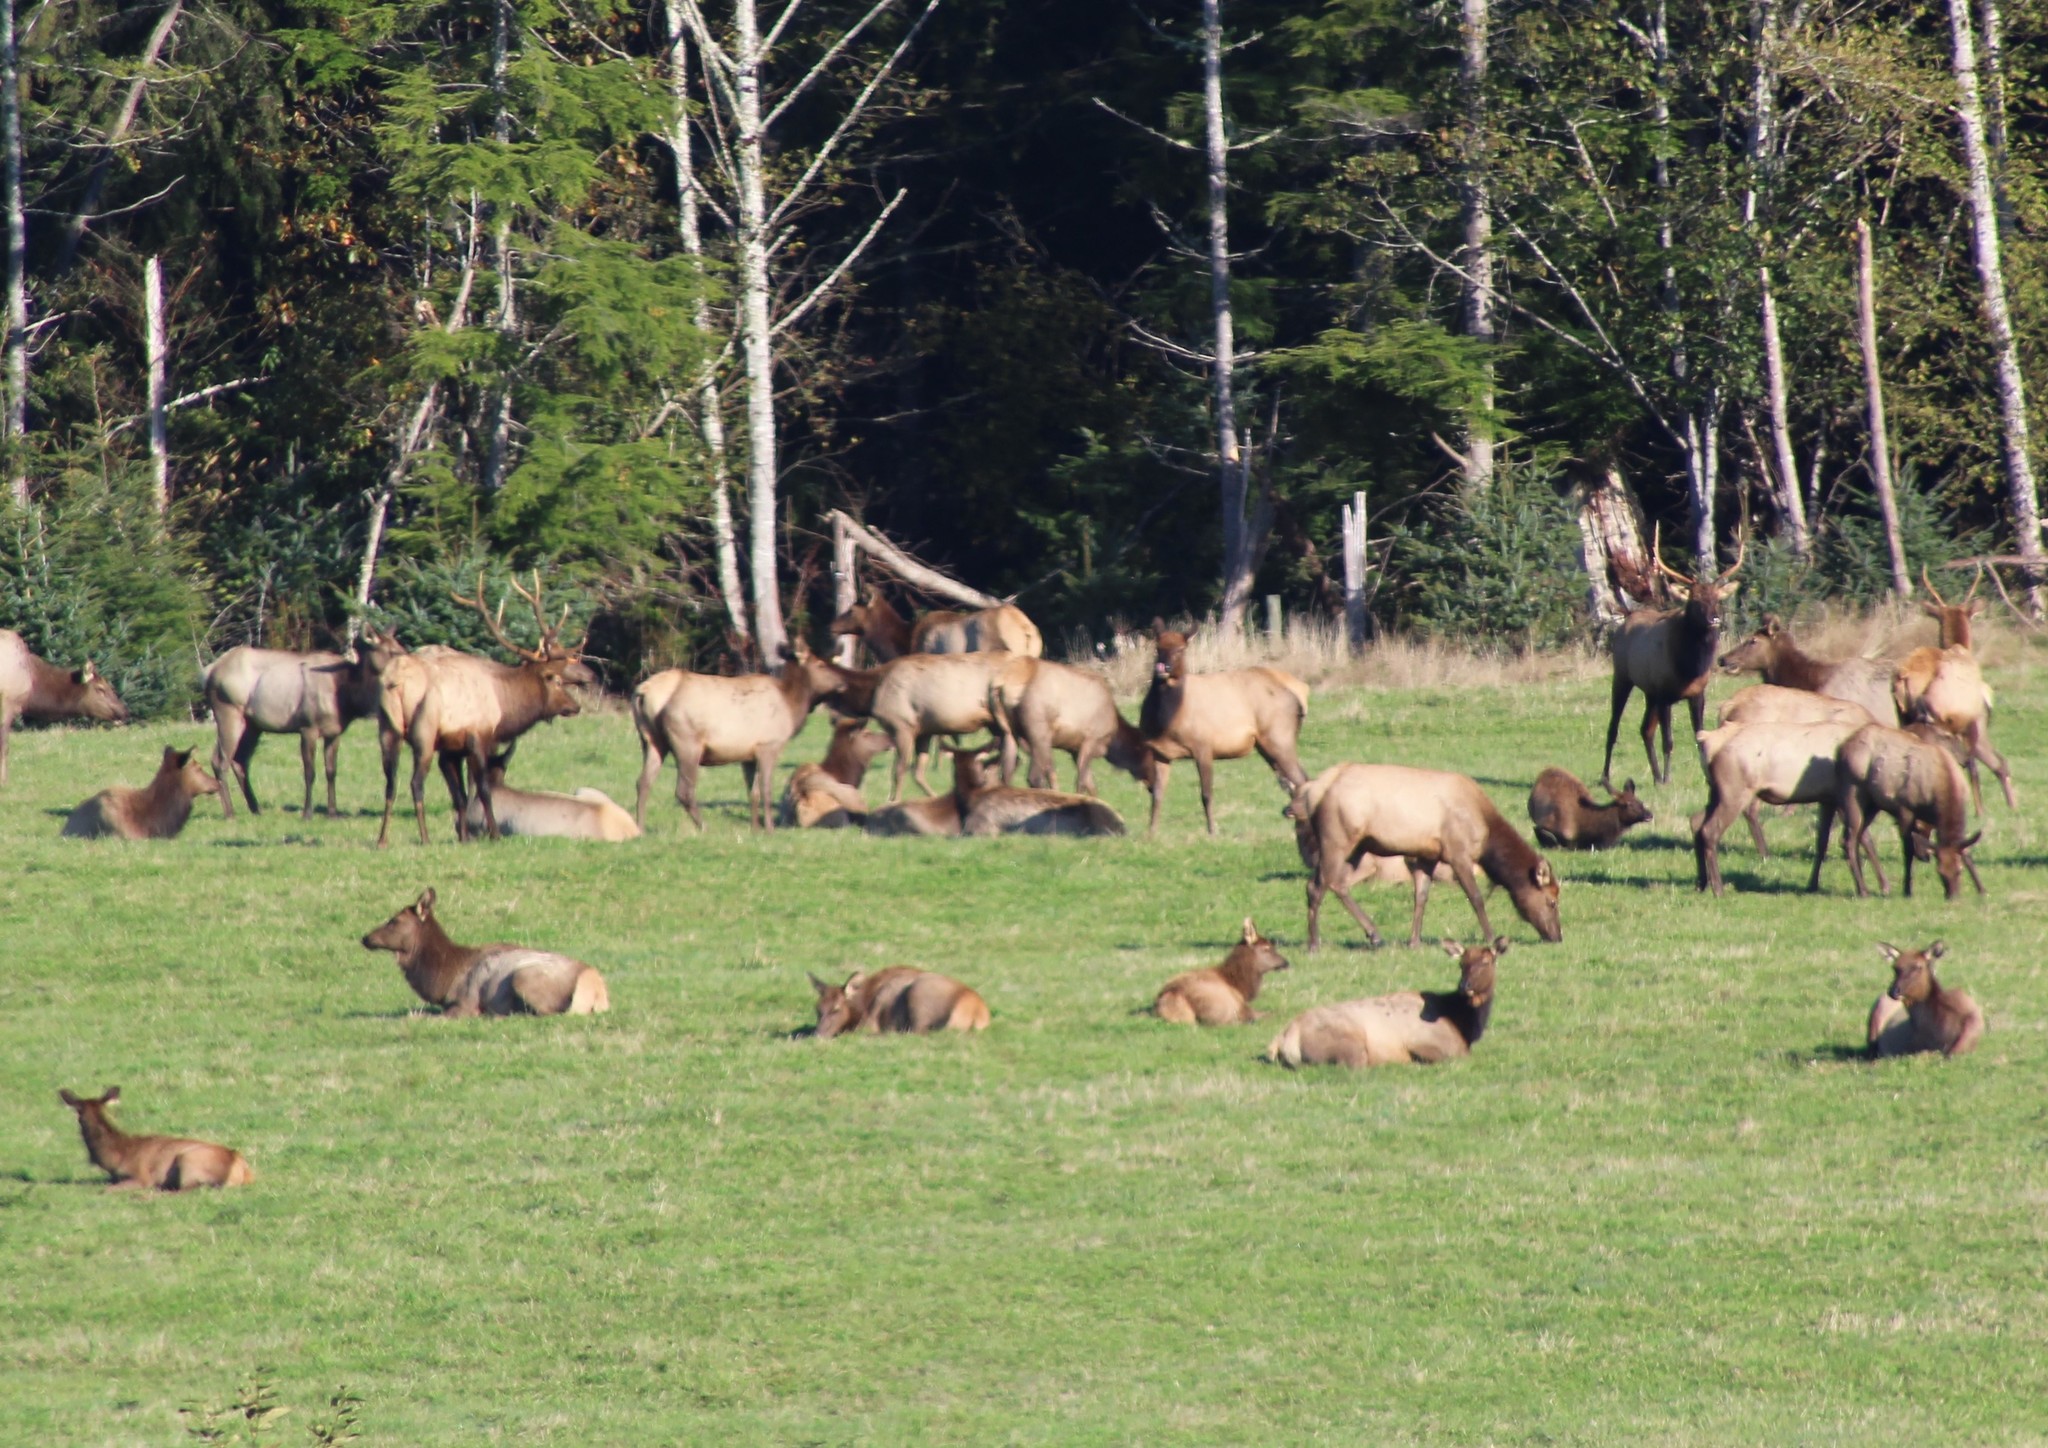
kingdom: Animalia
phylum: Chordata
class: Mammalia
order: Artiodactyla
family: Cervidae
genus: Cervus
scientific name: Cervus elaphus
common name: Red deer
